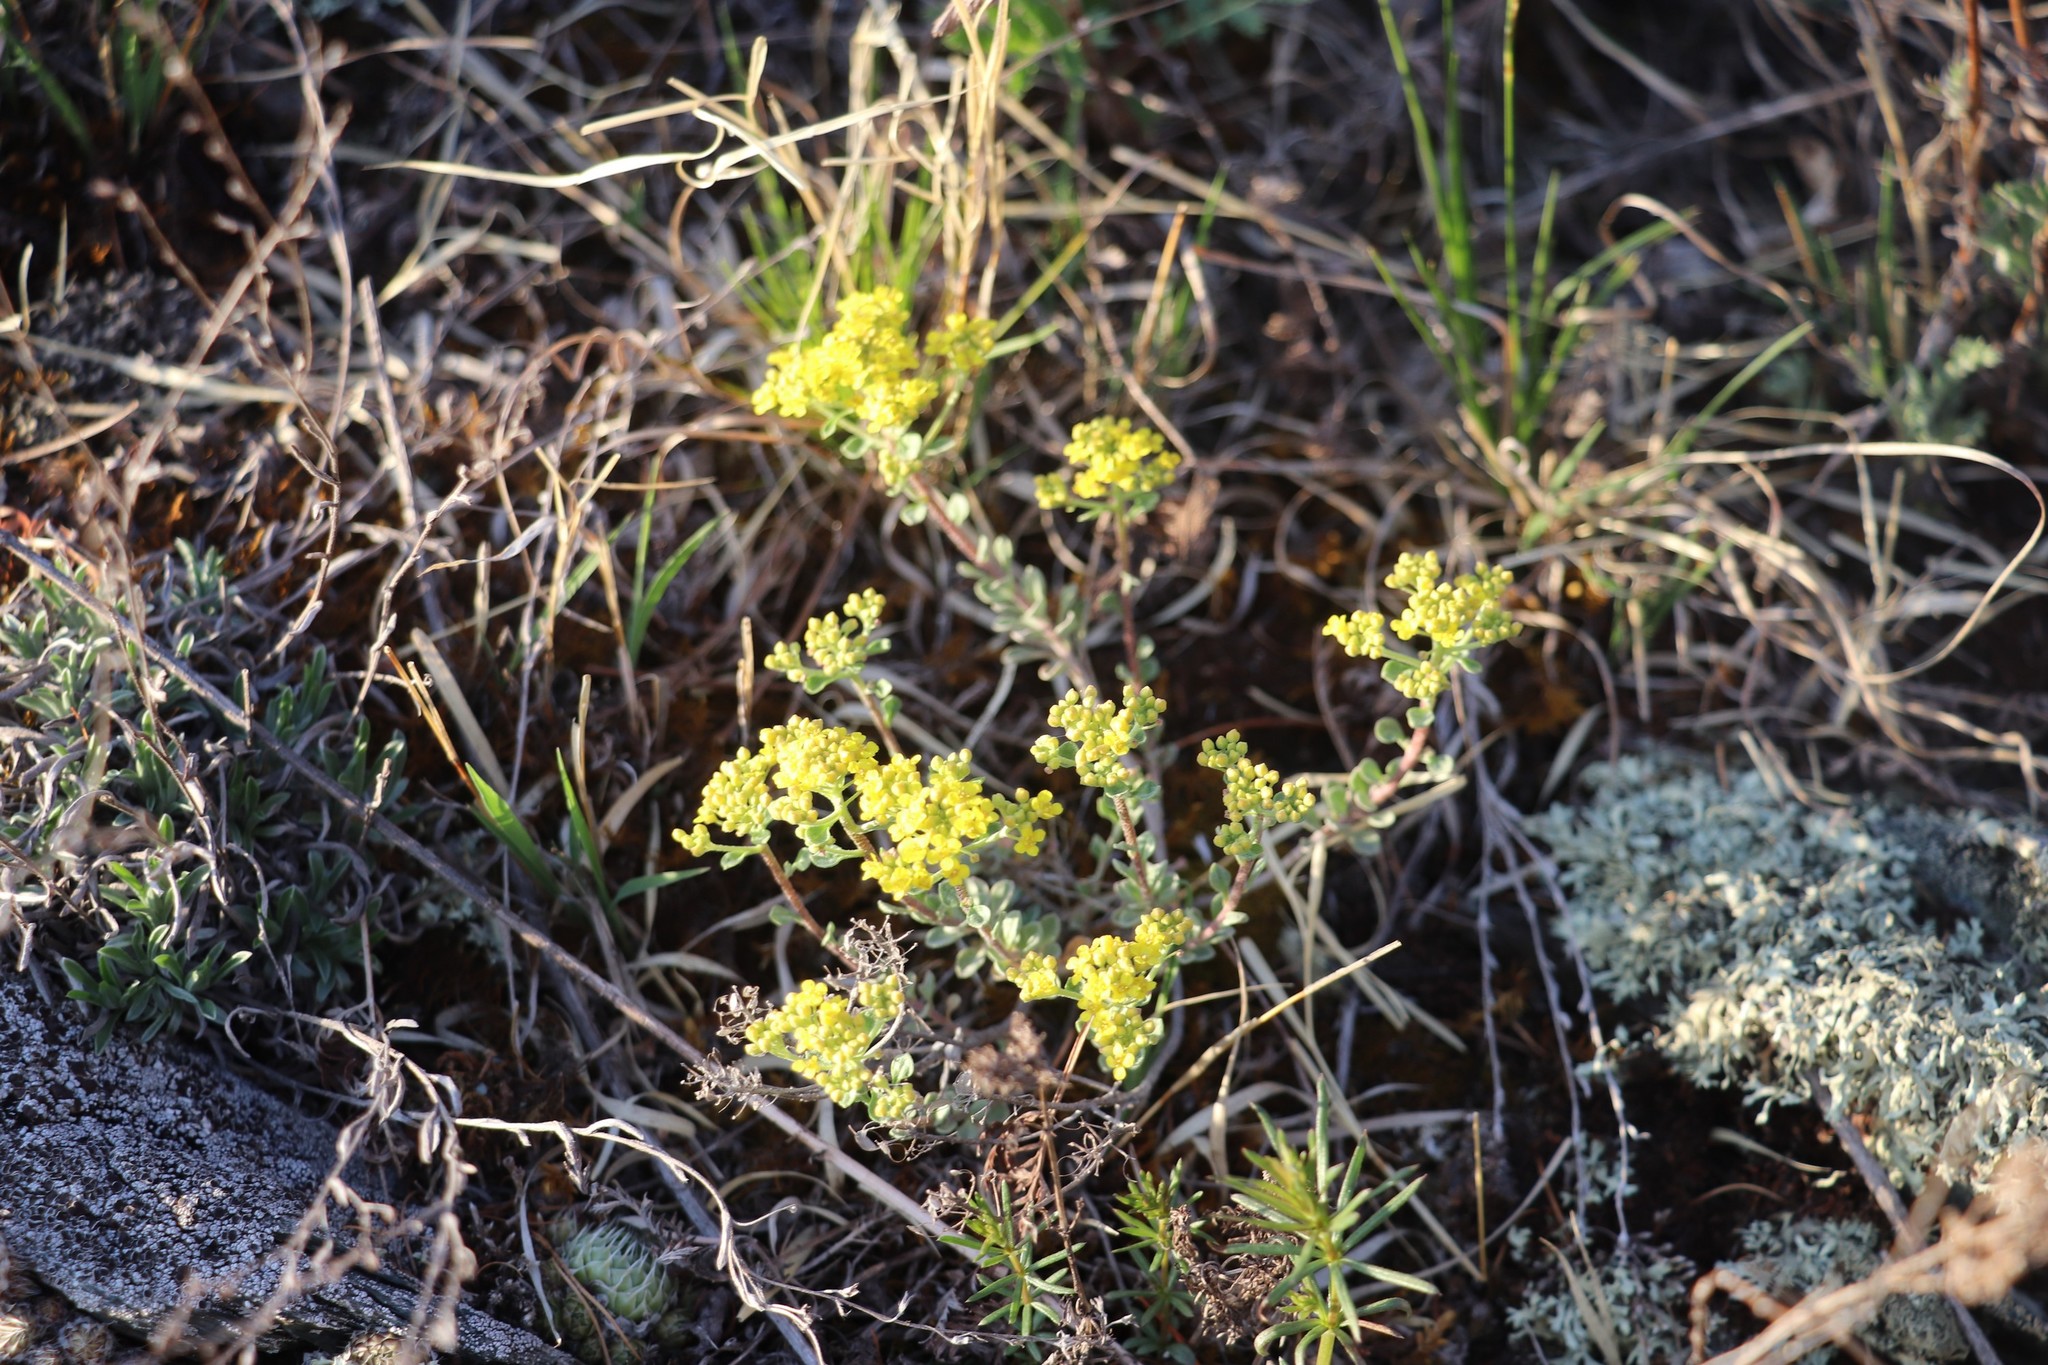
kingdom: Plantae
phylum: Tracheophyta
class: Magnoliopsida
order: Brassicales
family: Brassicaceae
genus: Odontarrhena
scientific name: Odontarrhena obovata
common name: American alyssum
